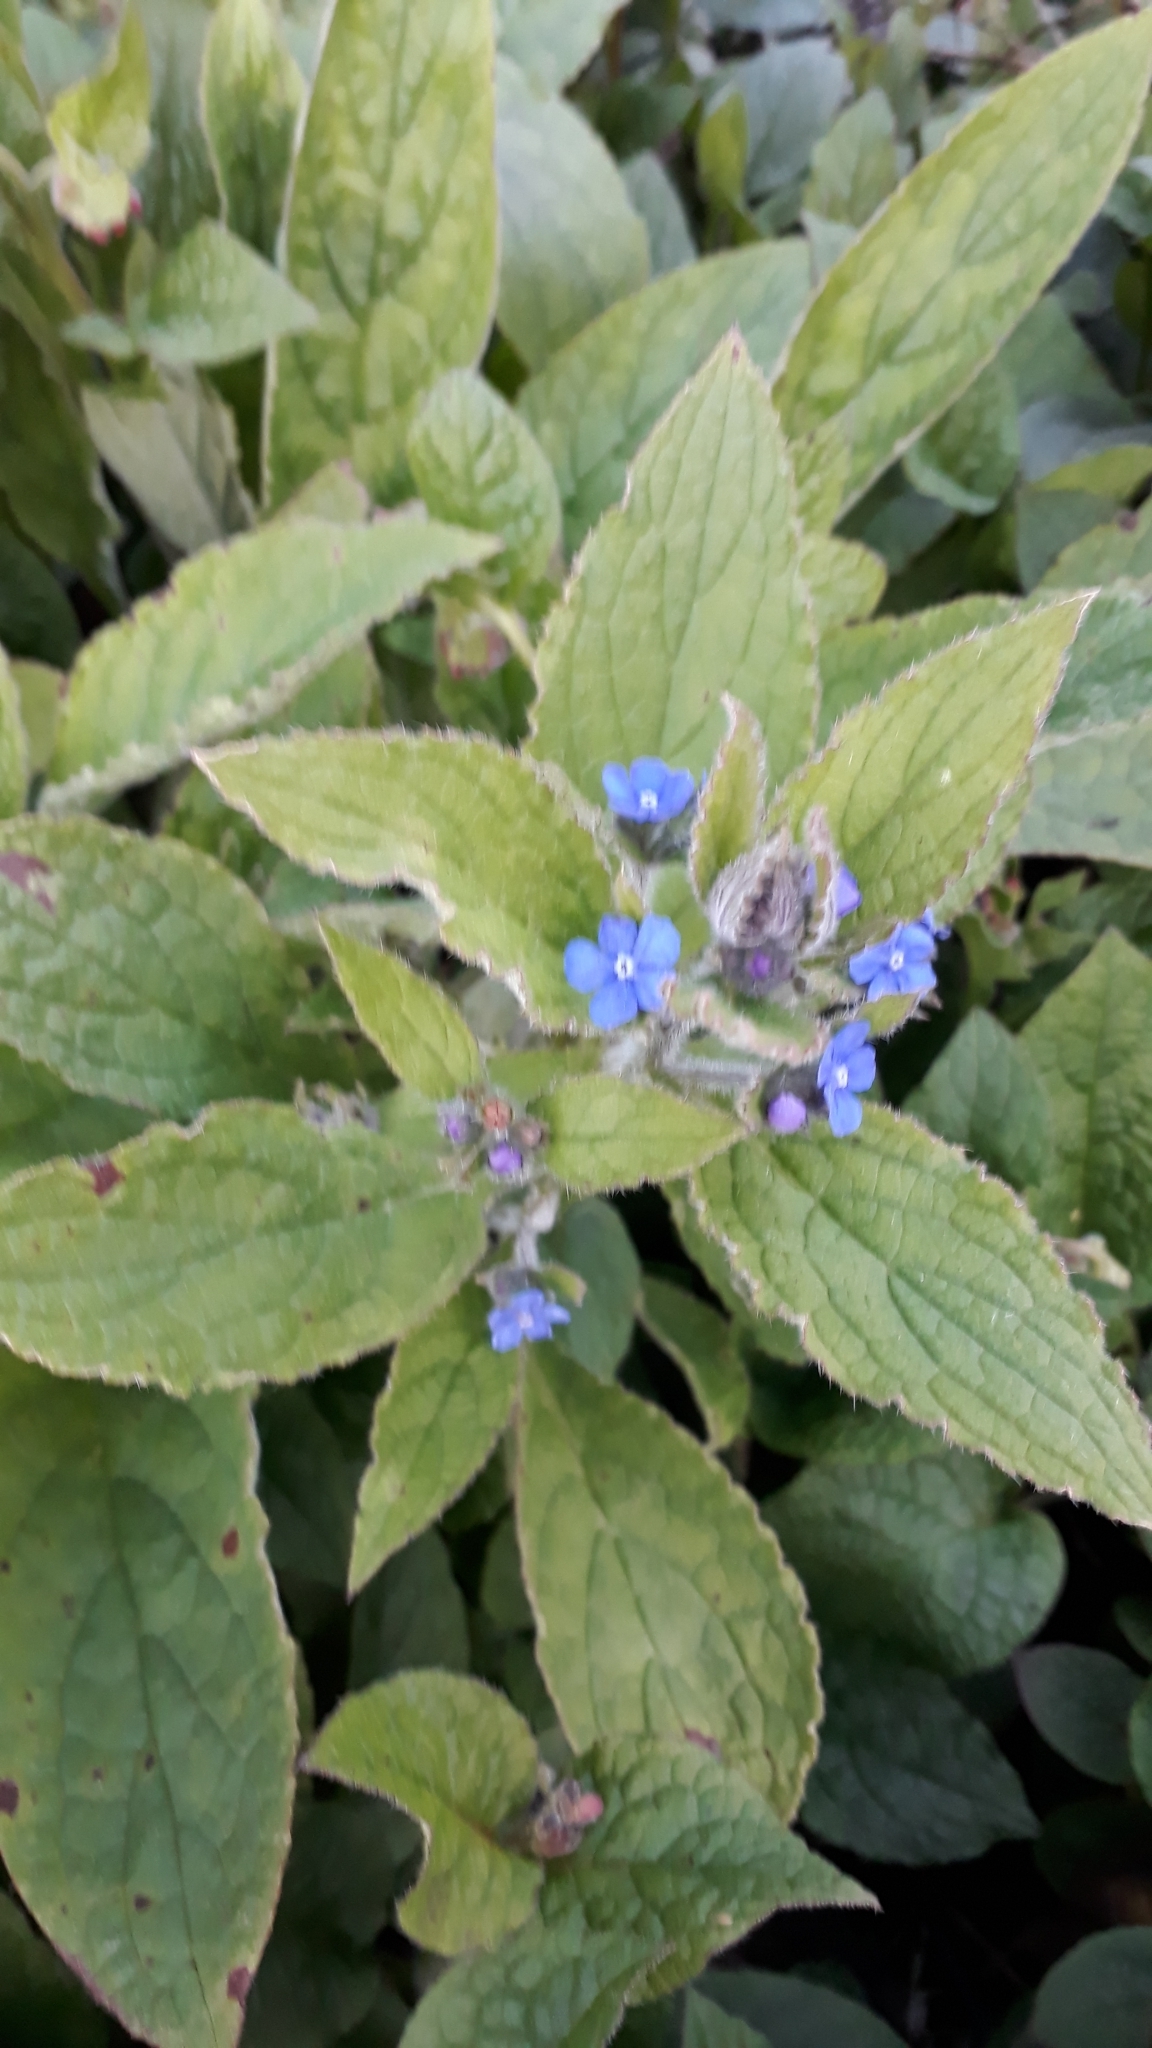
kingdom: Plantae
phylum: Tracheophyta
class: Magnoliopsida
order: Boraginales
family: Boraginaceae
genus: Pentaglottis
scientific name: Pentaglottis sempervirens
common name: Green alkanet
